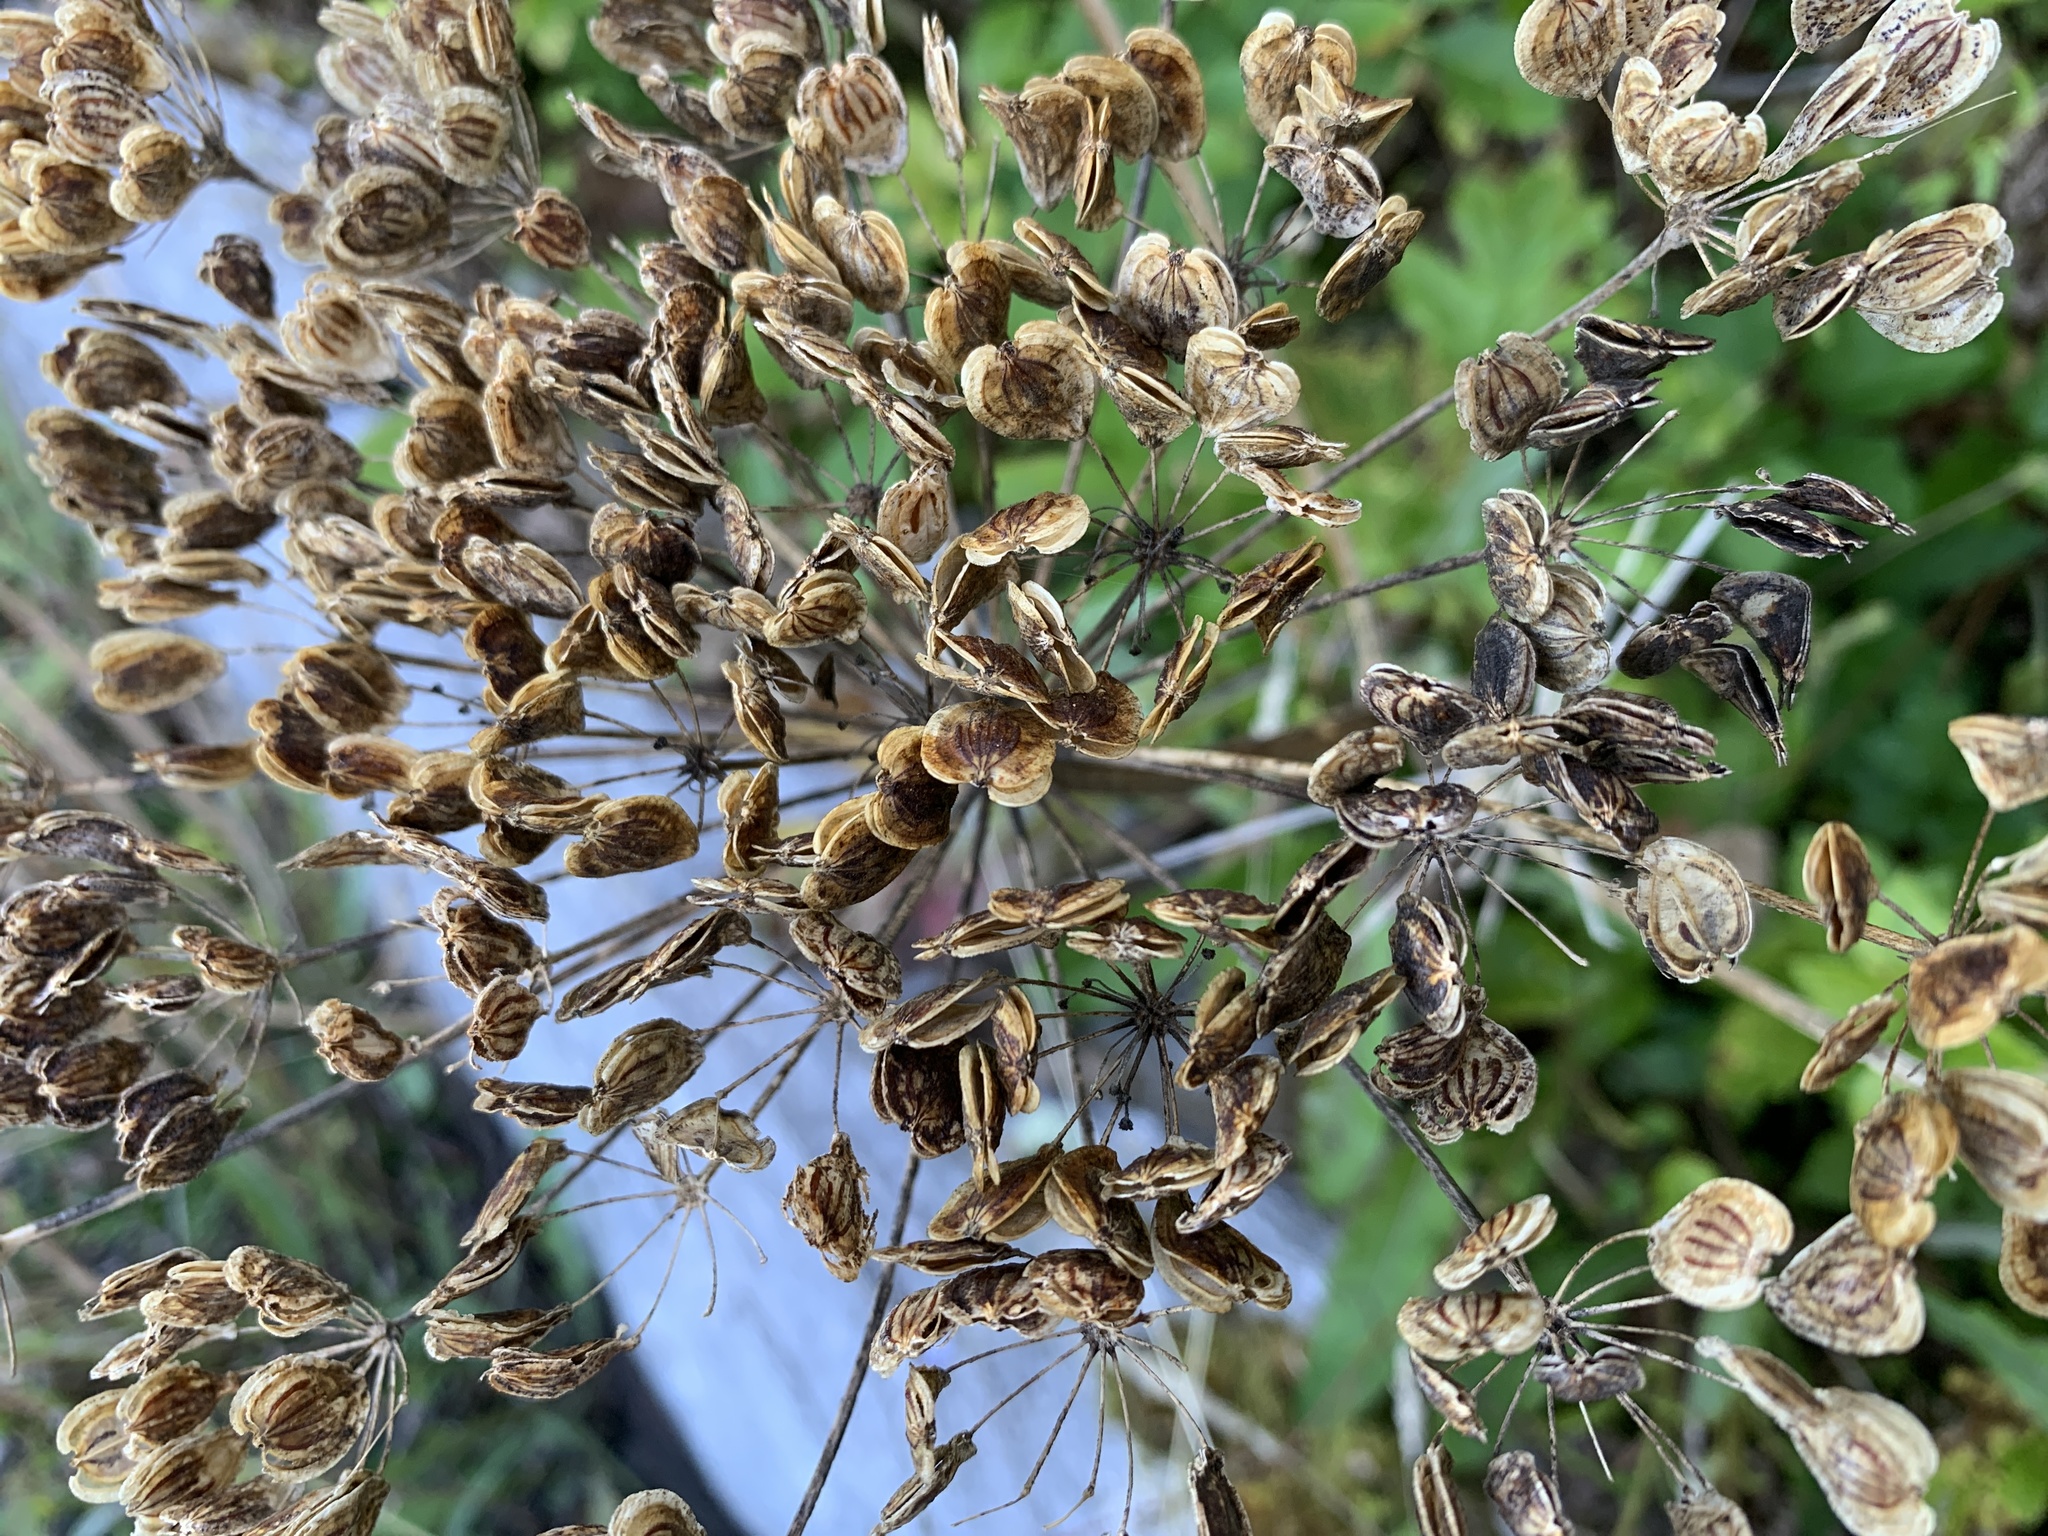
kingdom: Plantae
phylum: Tracheophyta
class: Magnoliopsida
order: Apiales
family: Apiaceae
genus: Heracleum
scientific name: Heracleum maximum
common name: American cow parsnip
